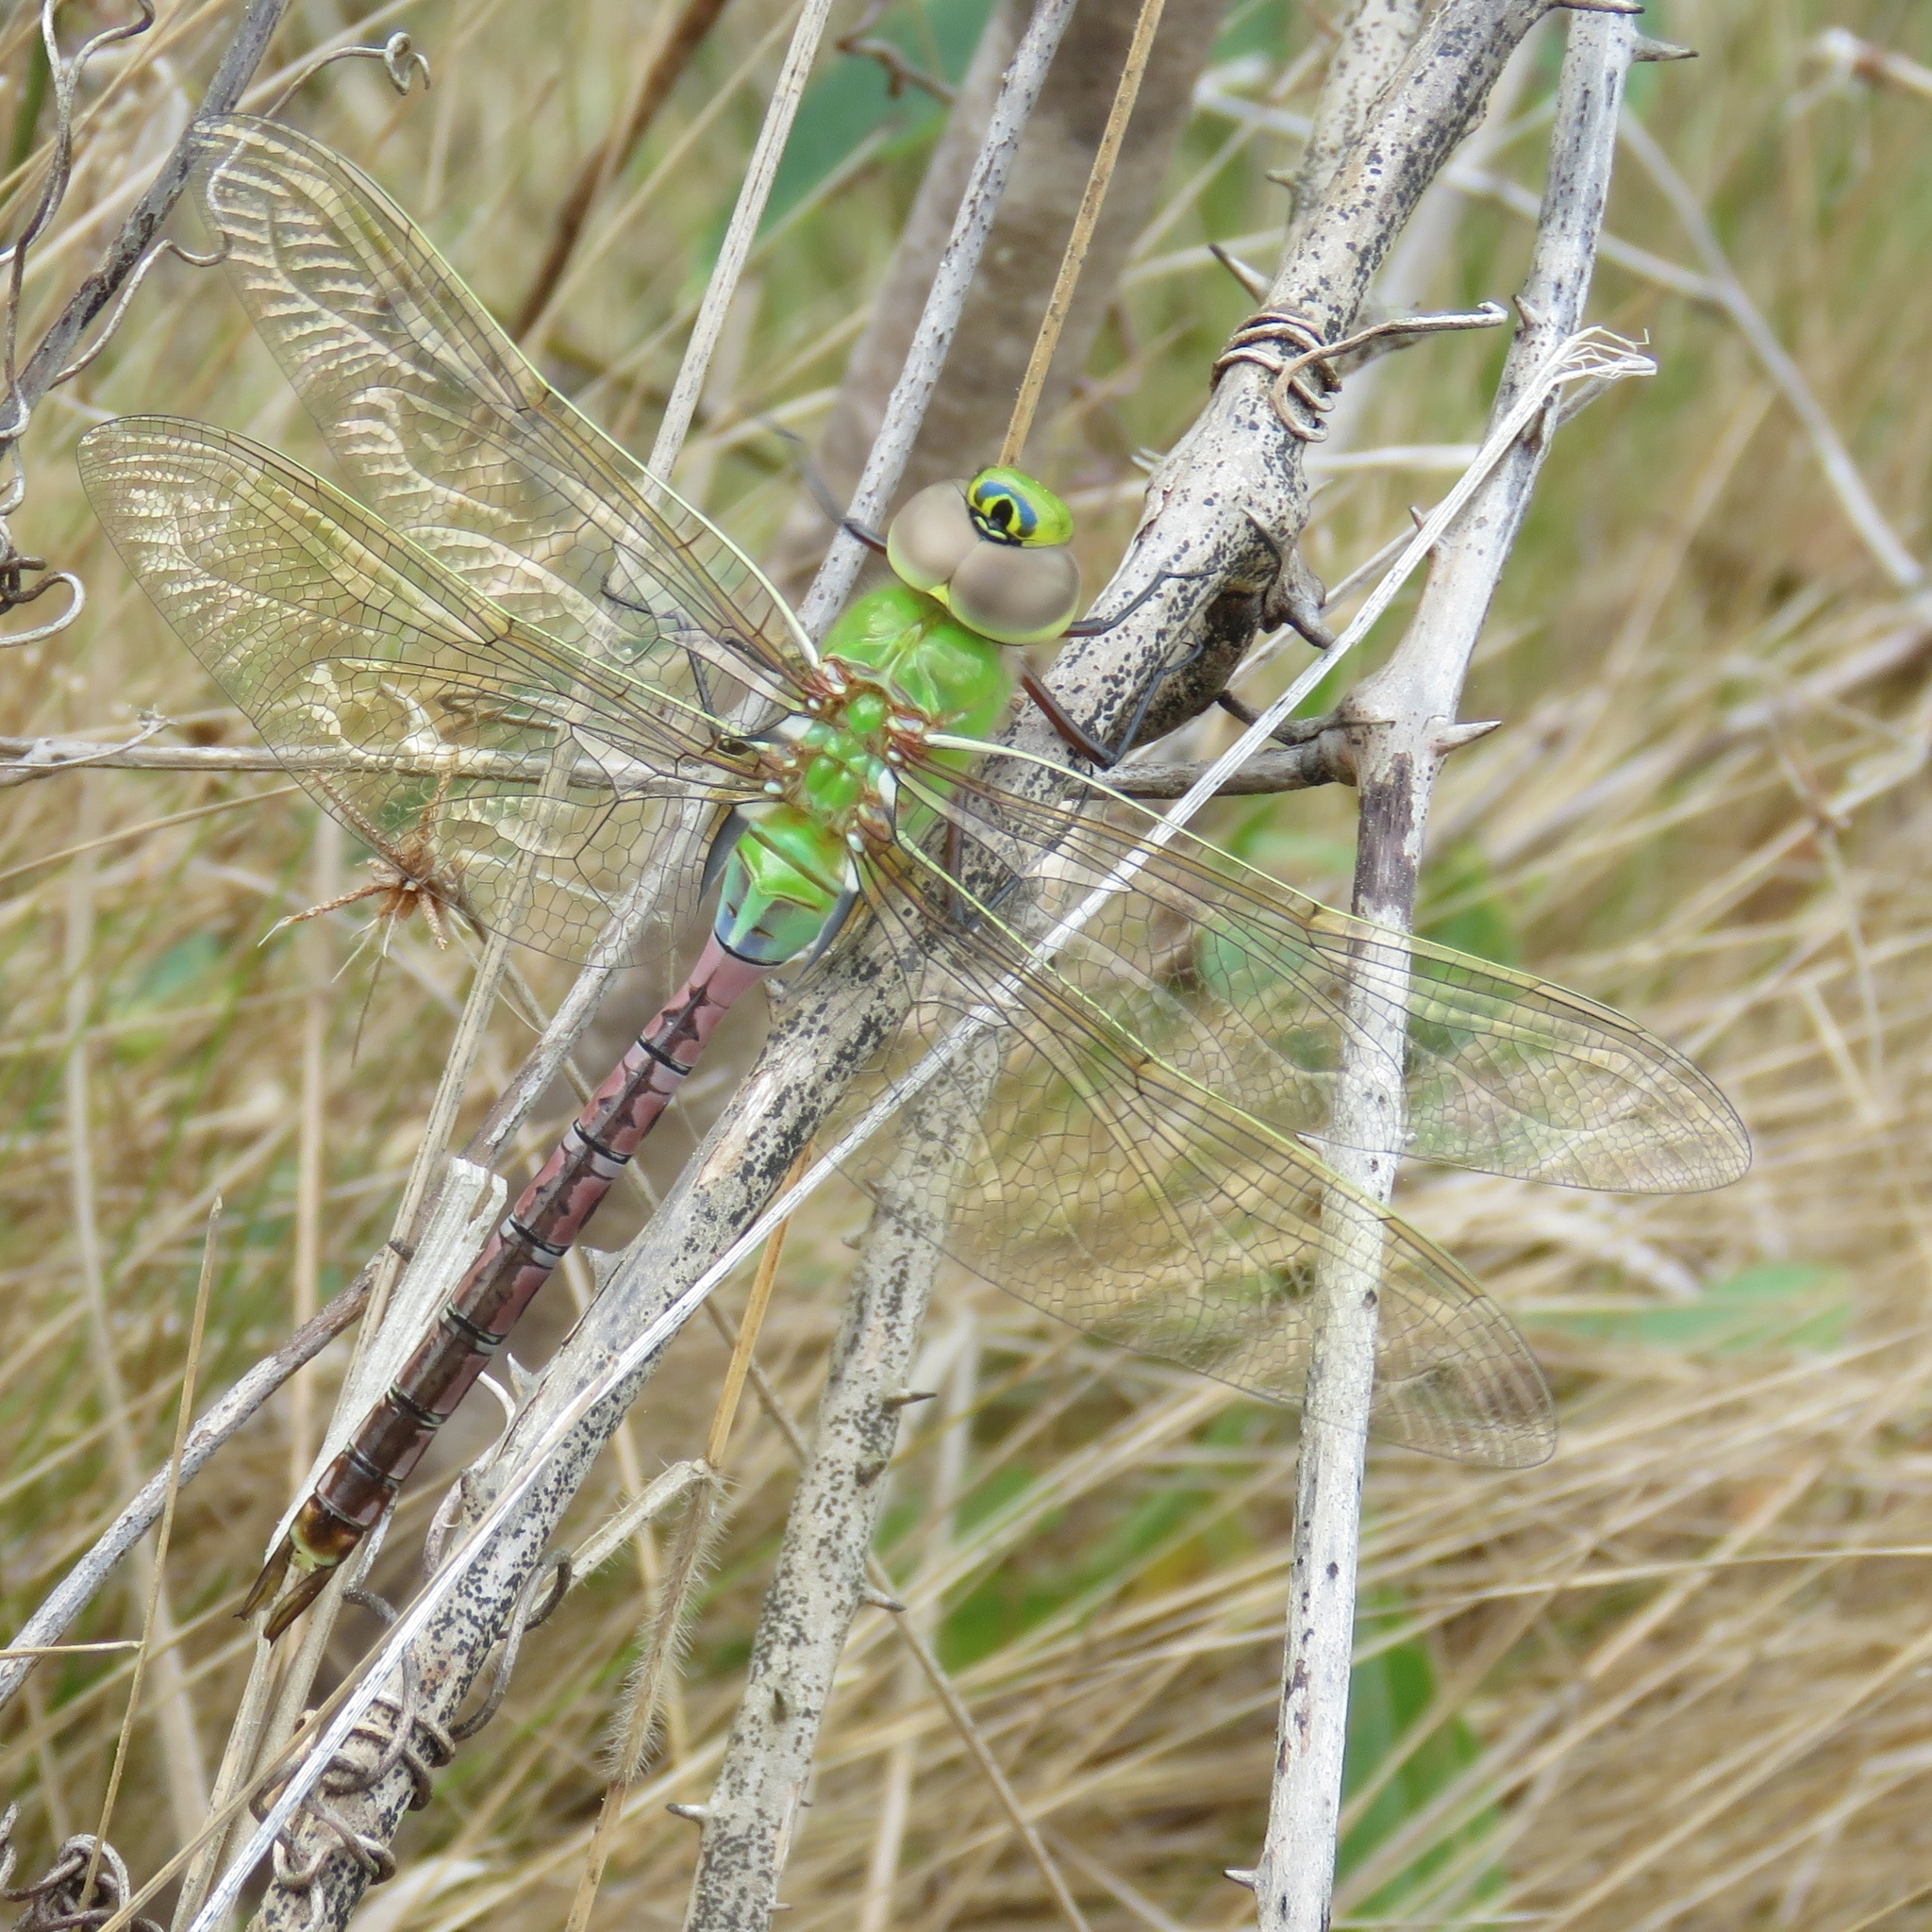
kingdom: Animalia
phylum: Arthropoda
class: Insecta
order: Odonata
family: Aeshnidae
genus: Anax
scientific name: Anax junius
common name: Common green darner
